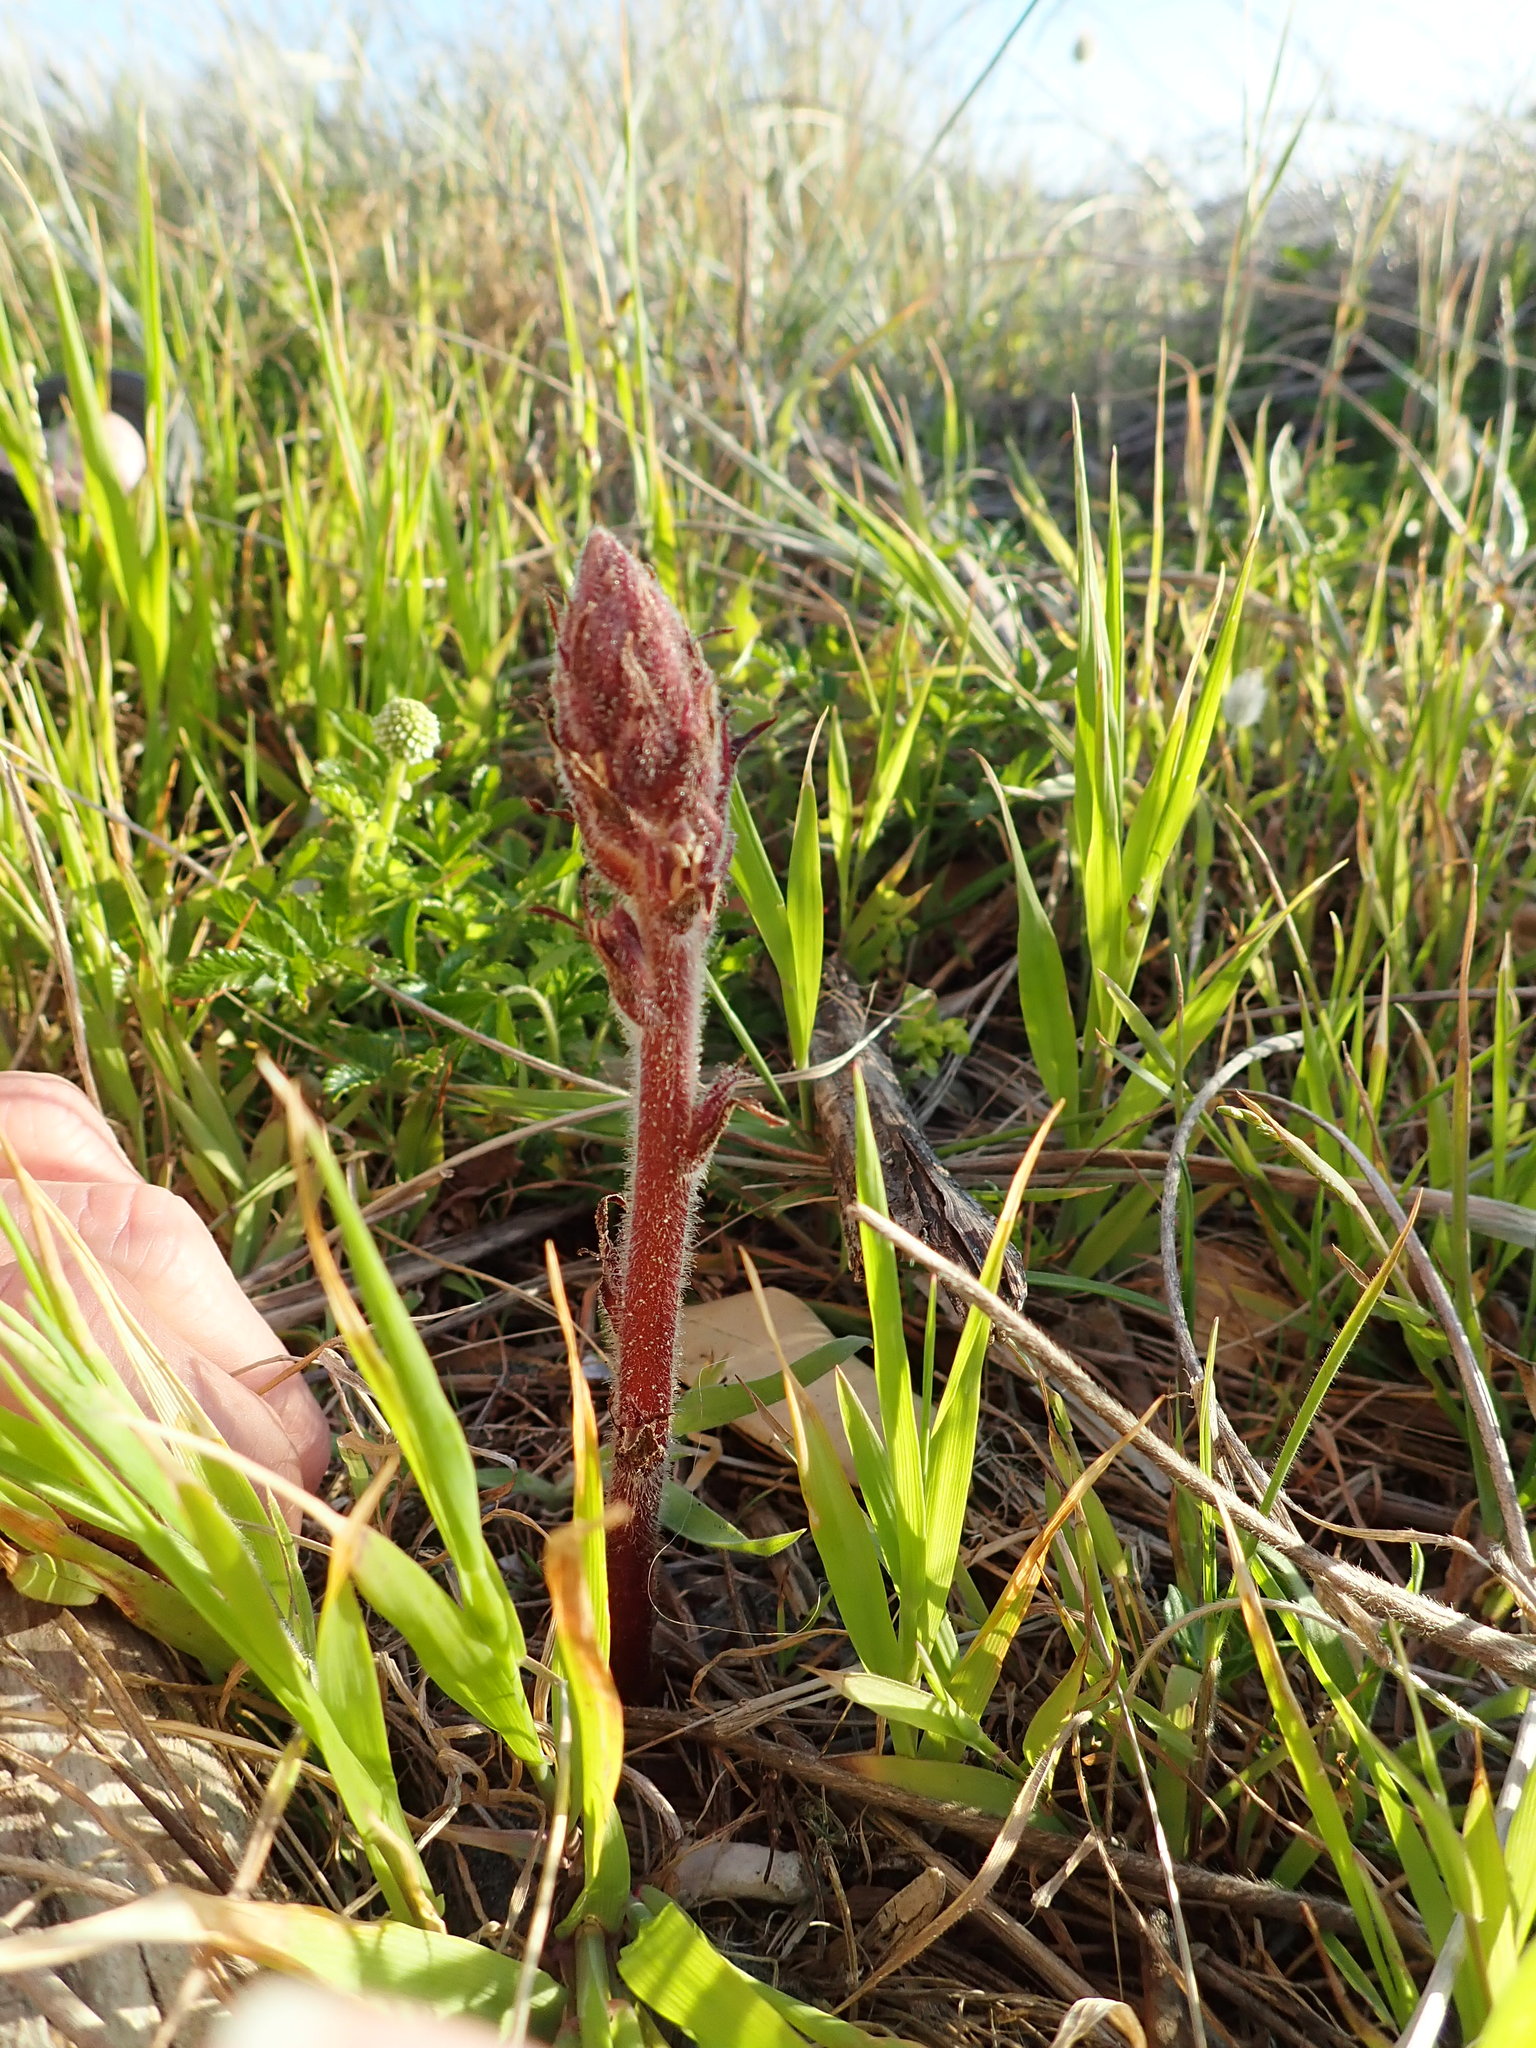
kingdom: Plantae
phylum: Tracheophyta
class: Magnoliopsida
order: Lamiales
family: Orobanchaceae
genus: Orobanche
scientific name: Orobanche minor
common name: Common broomrape
